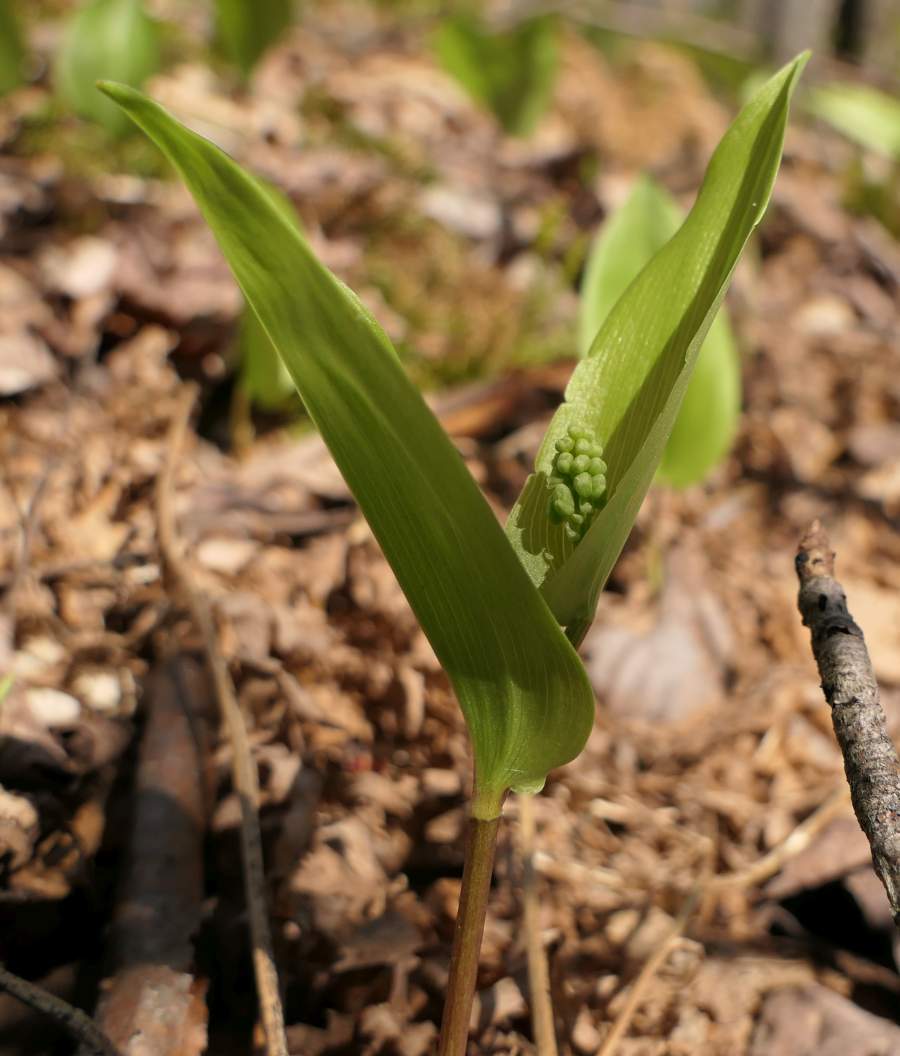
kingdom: Plantae
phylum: Tracheophyta
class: Liliopsida
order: Asparagales
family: Asparagaceae
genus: Maianthemum
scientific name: Maianthemum canadense
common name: False lily-of-the-valley
